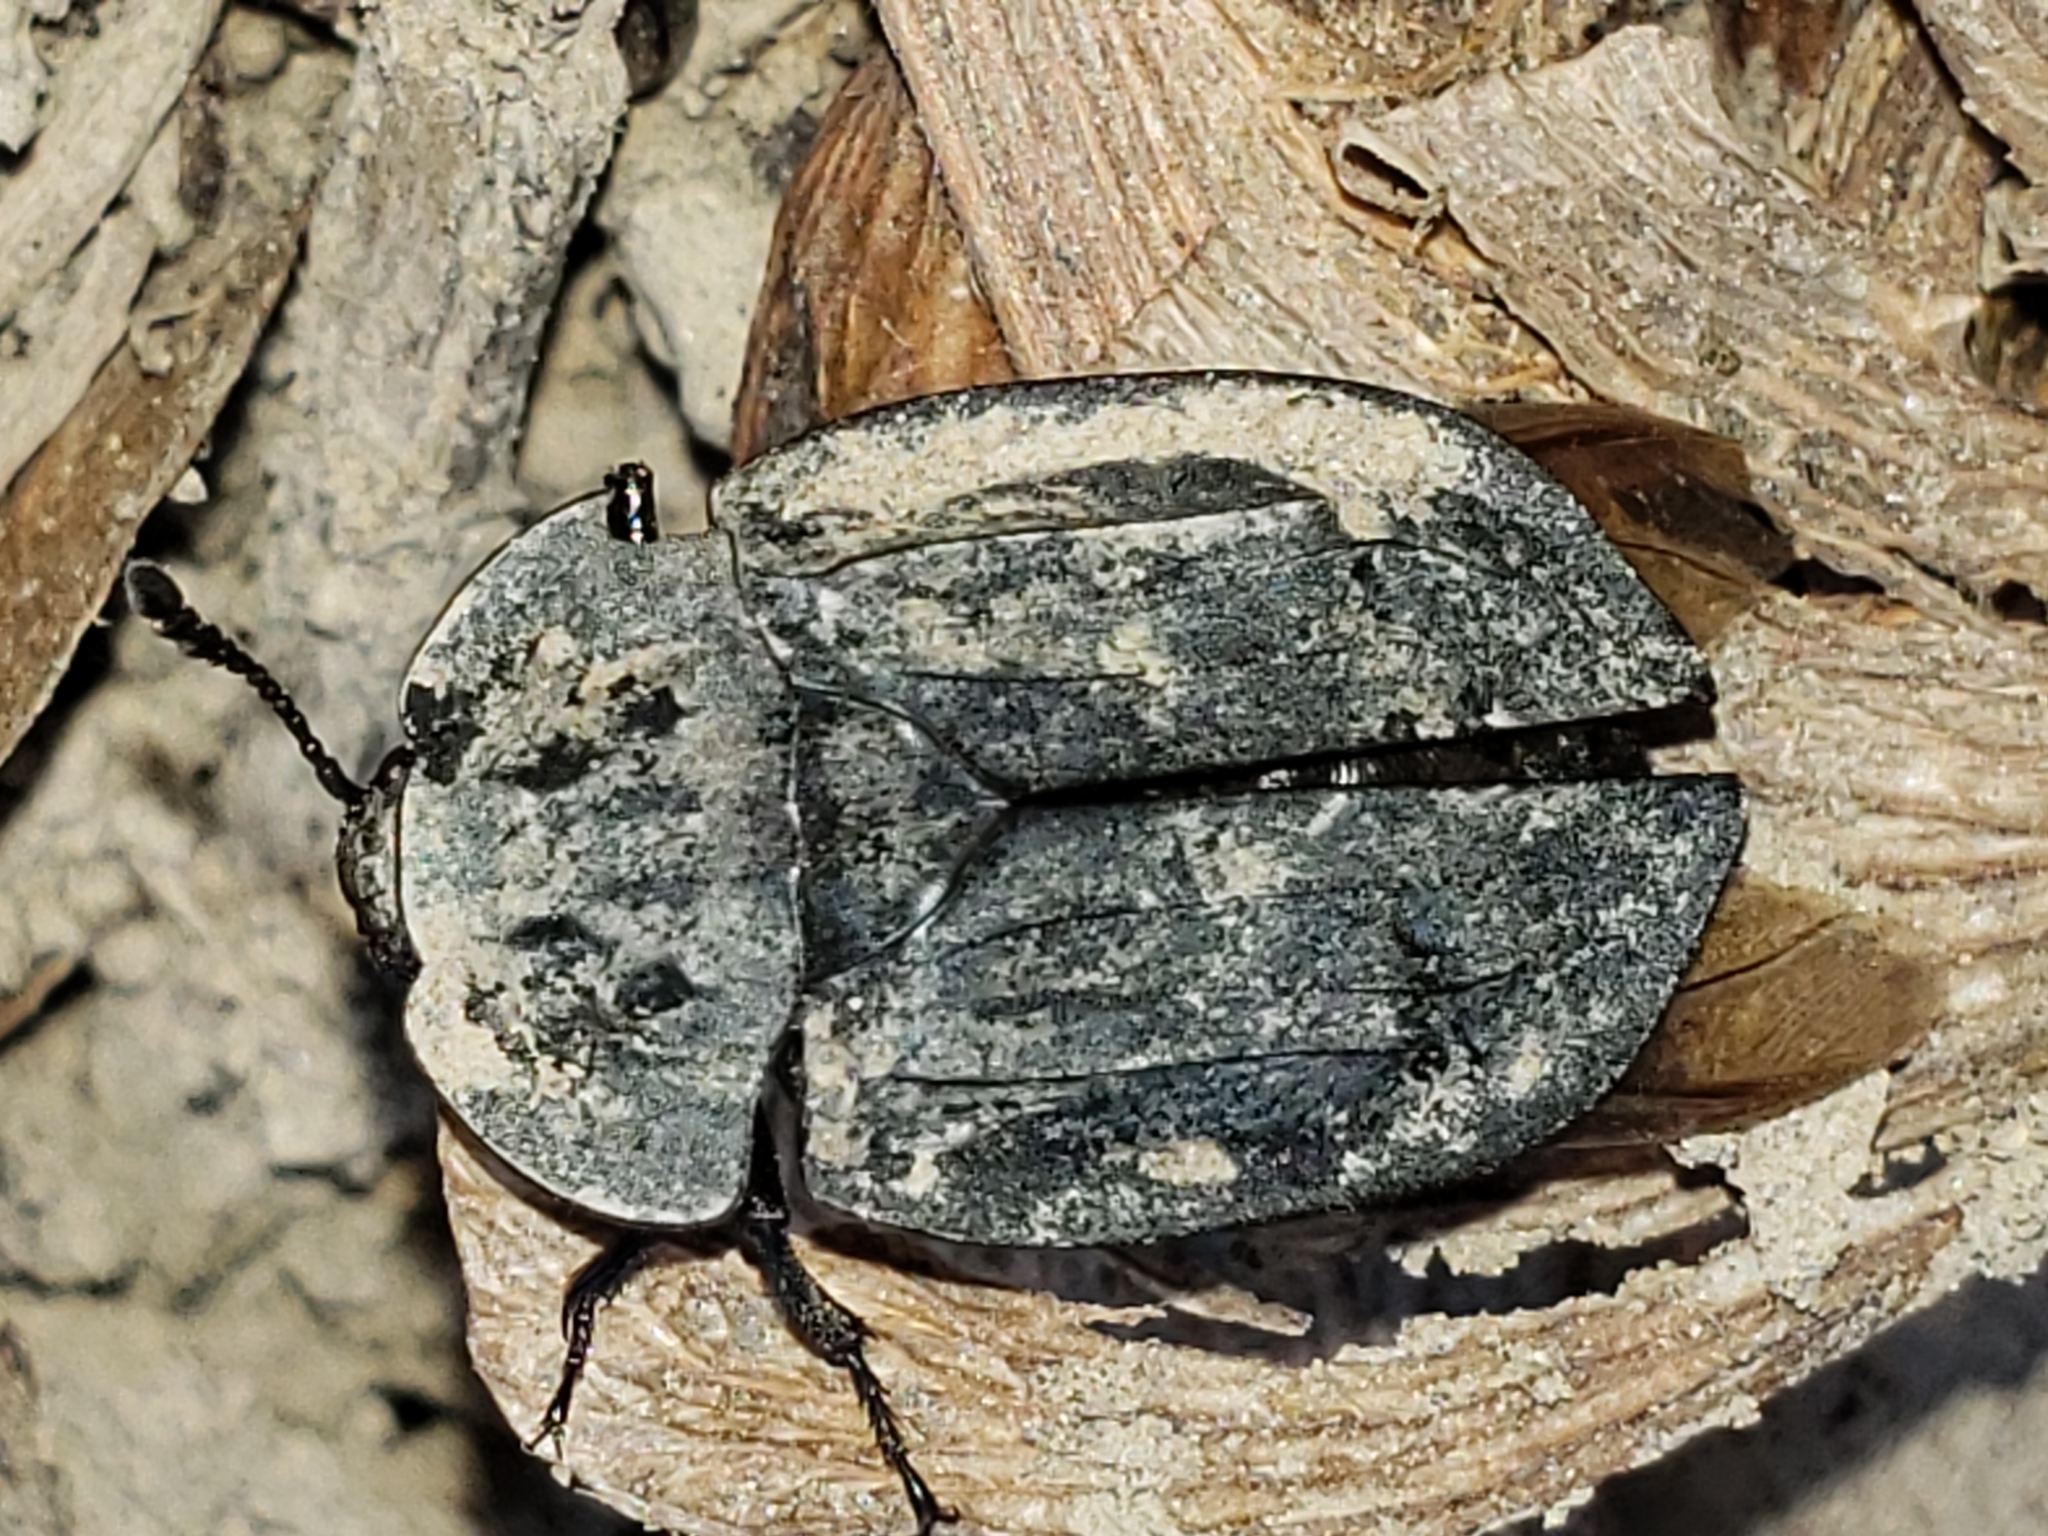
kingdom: Animalia
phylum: Arthropoda
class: Insecta
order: Coleoptera
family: Staphylinidae
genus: Oiceoptoma
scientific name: Oiceoptoma inaequale
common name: Ridged carrion beetle
